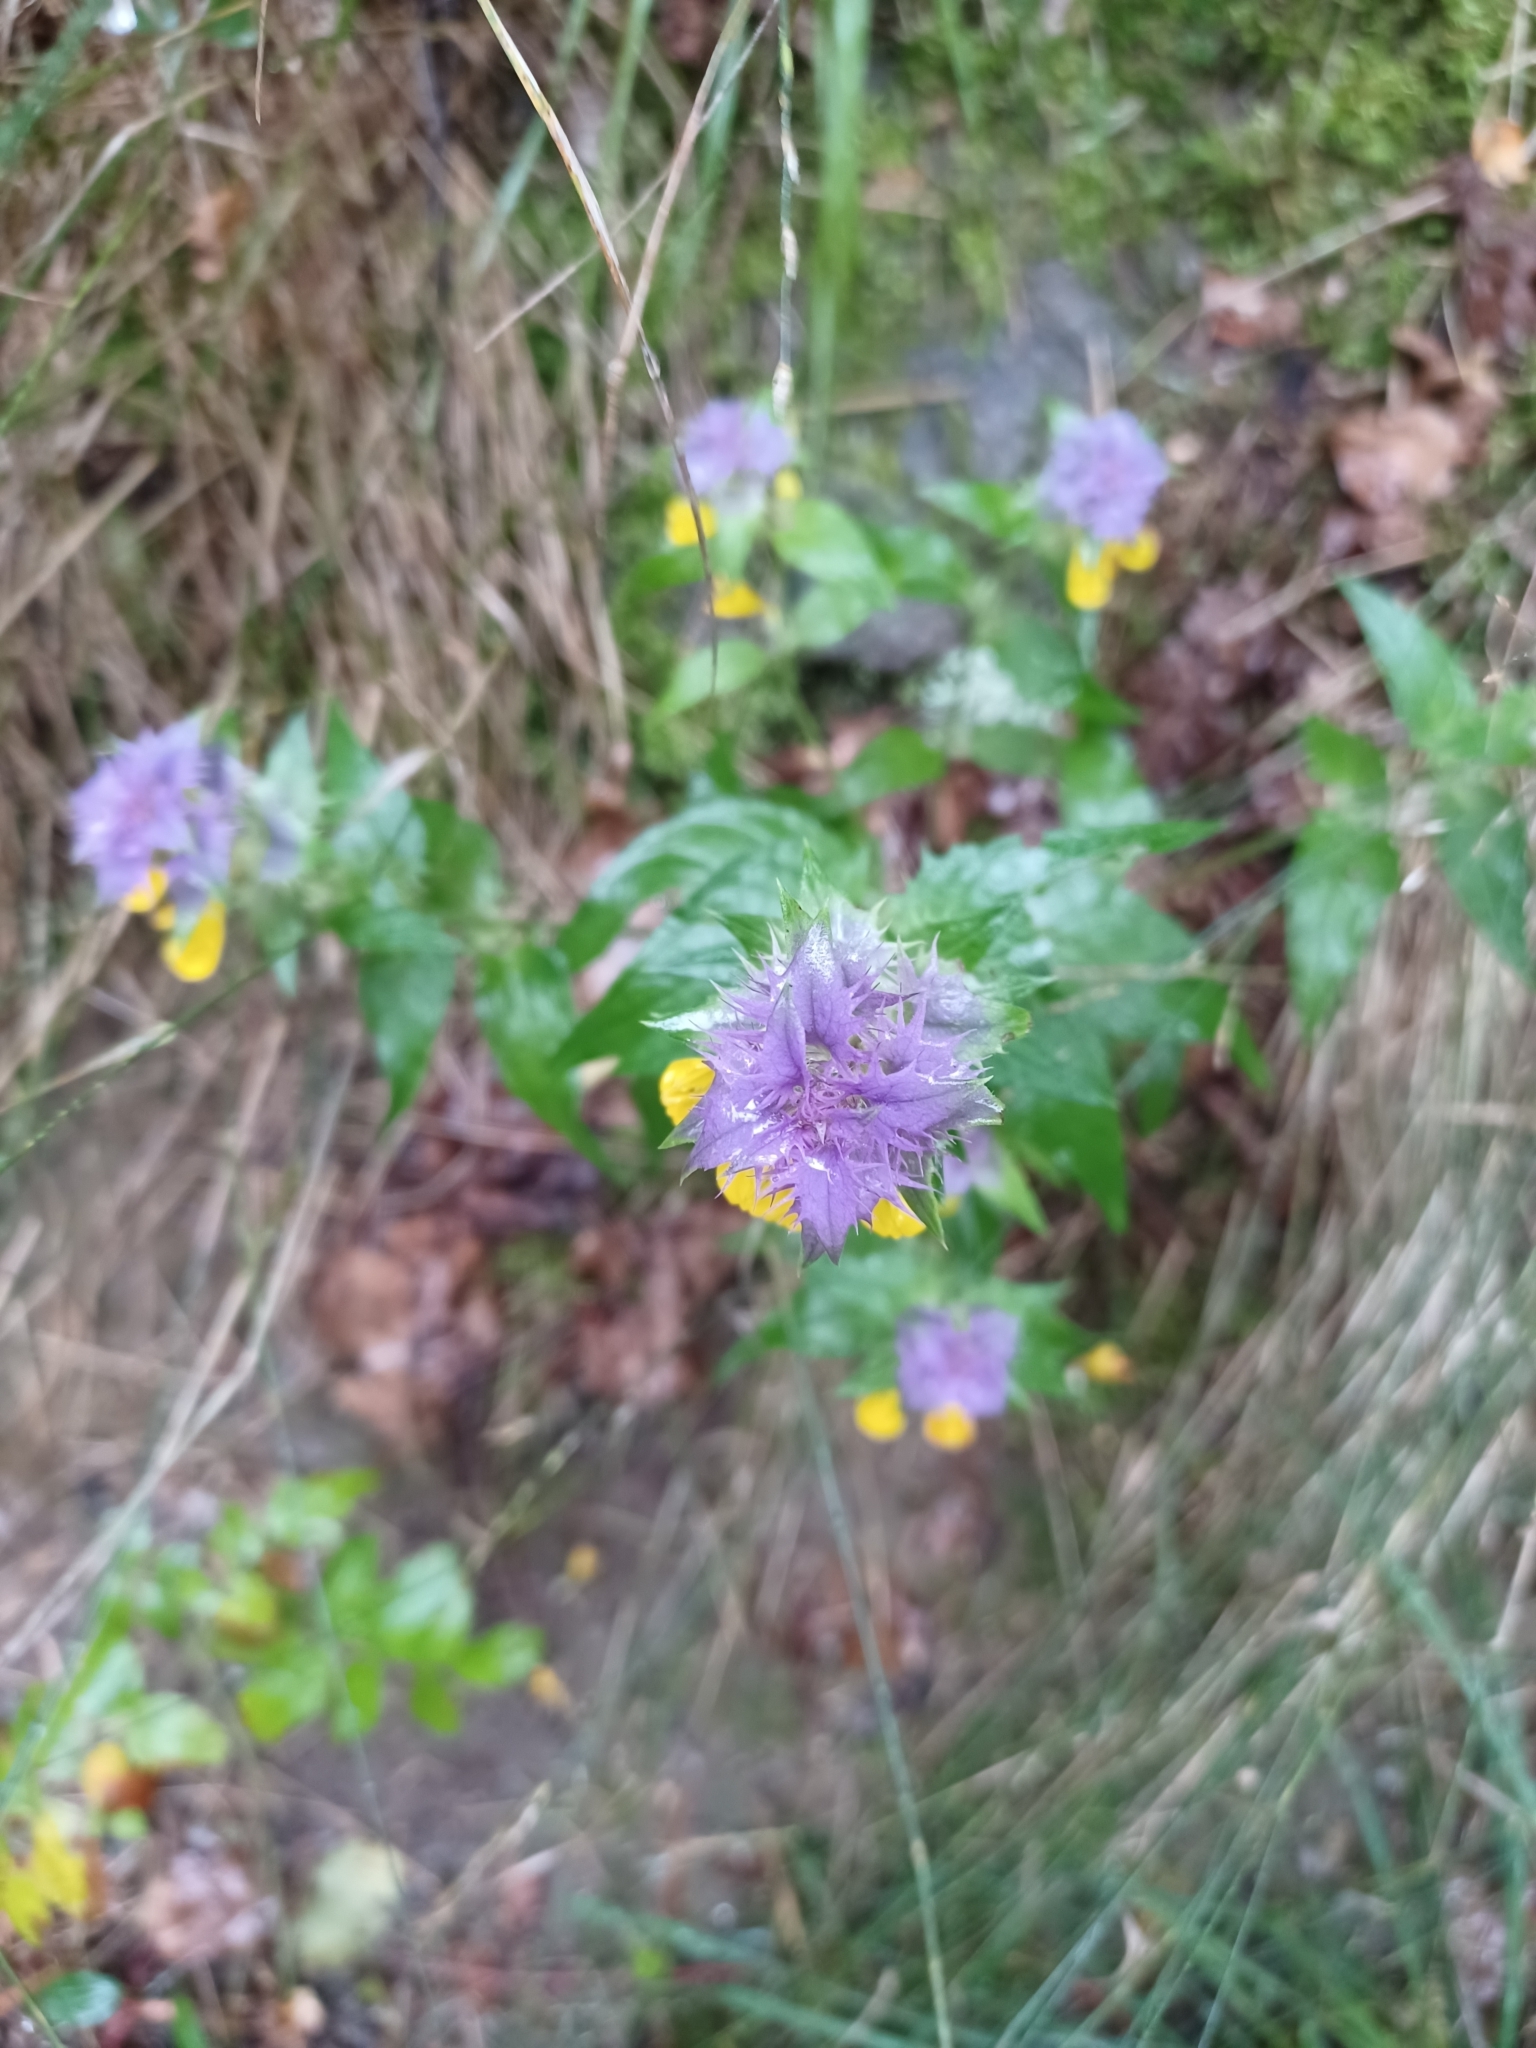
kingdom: Plantae
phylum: Tracheophyta
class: Magnoliopsida
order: Lamiales
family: Orobanchaceae
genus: Melampyrum
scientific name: Melampyrum nemorosum
